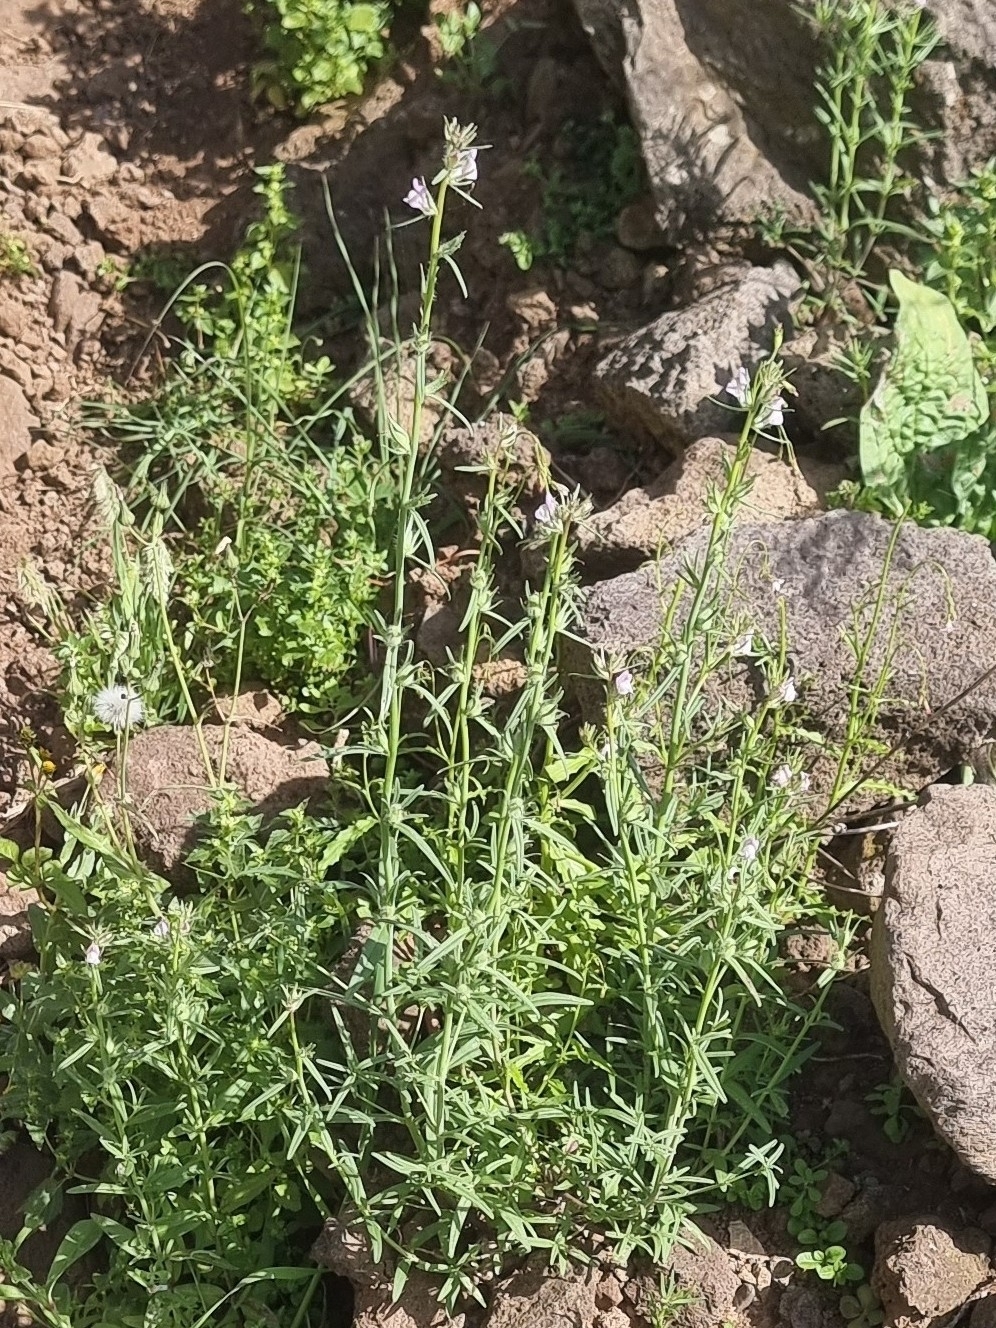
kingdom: Plantae
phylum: Tracheophyta
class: Magnoliopsida
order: Lamiales
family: Plantaginaceae
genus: Misopates
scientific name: Misopates orontium
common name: Weasel's-snout
